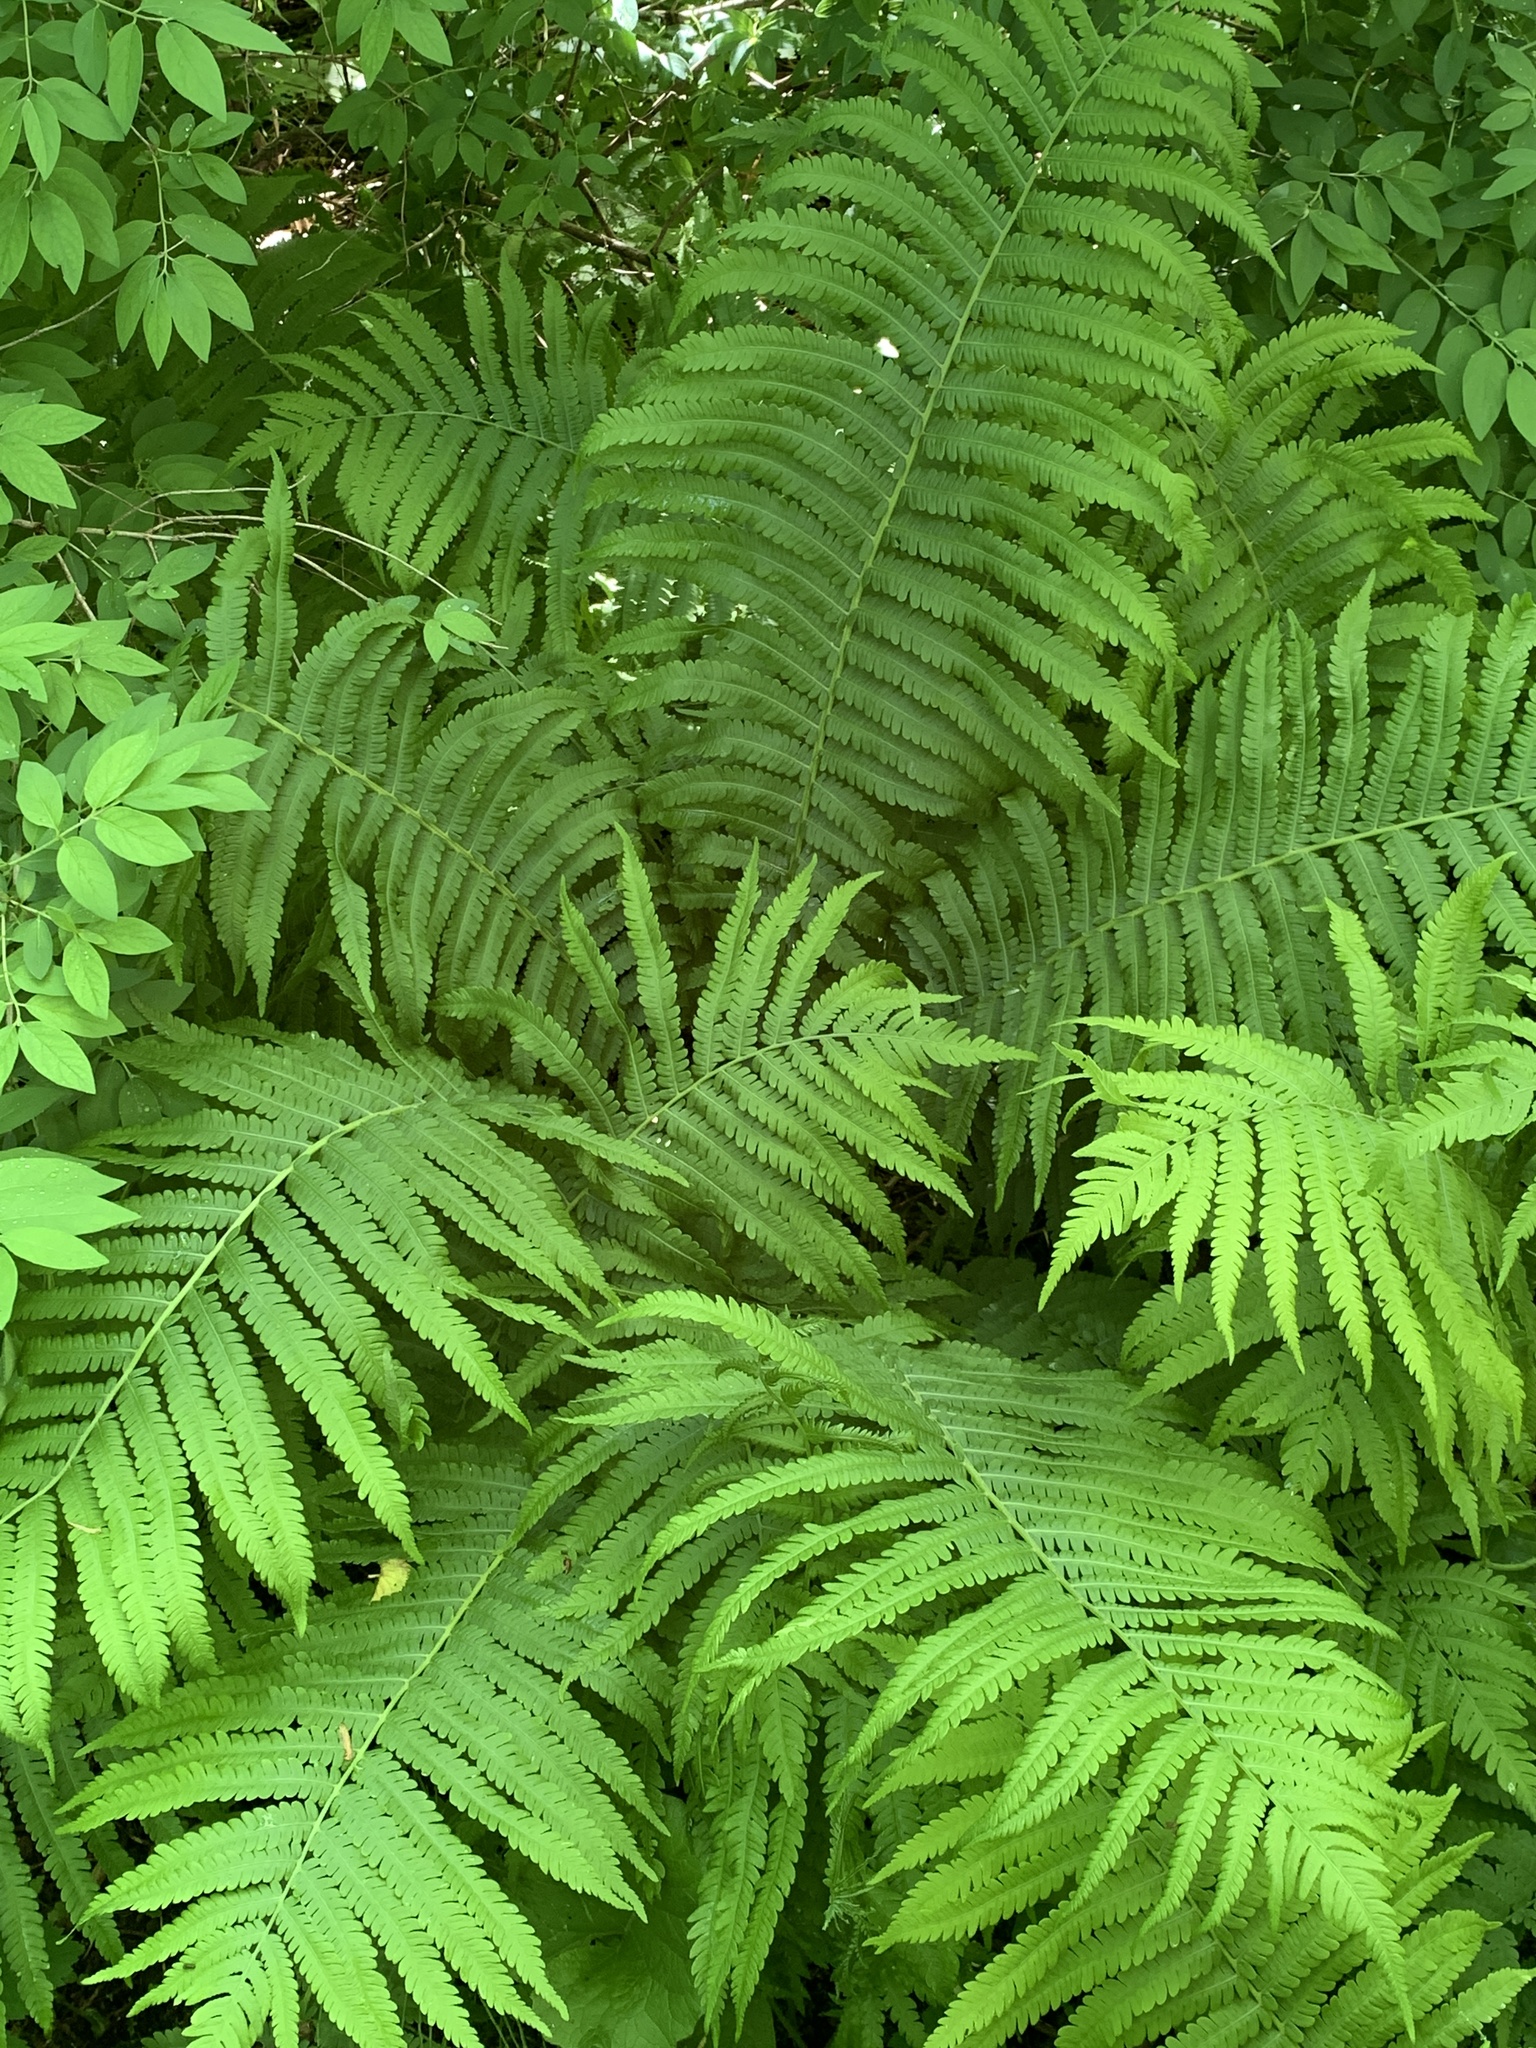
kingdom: Plantae
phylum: Tracheophyta
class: Polypodiopsida
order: Polypodiales
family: Onocleaceae
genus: Matteuccia
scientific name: Matteuccia struthiopteris
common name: Ostrich fern
